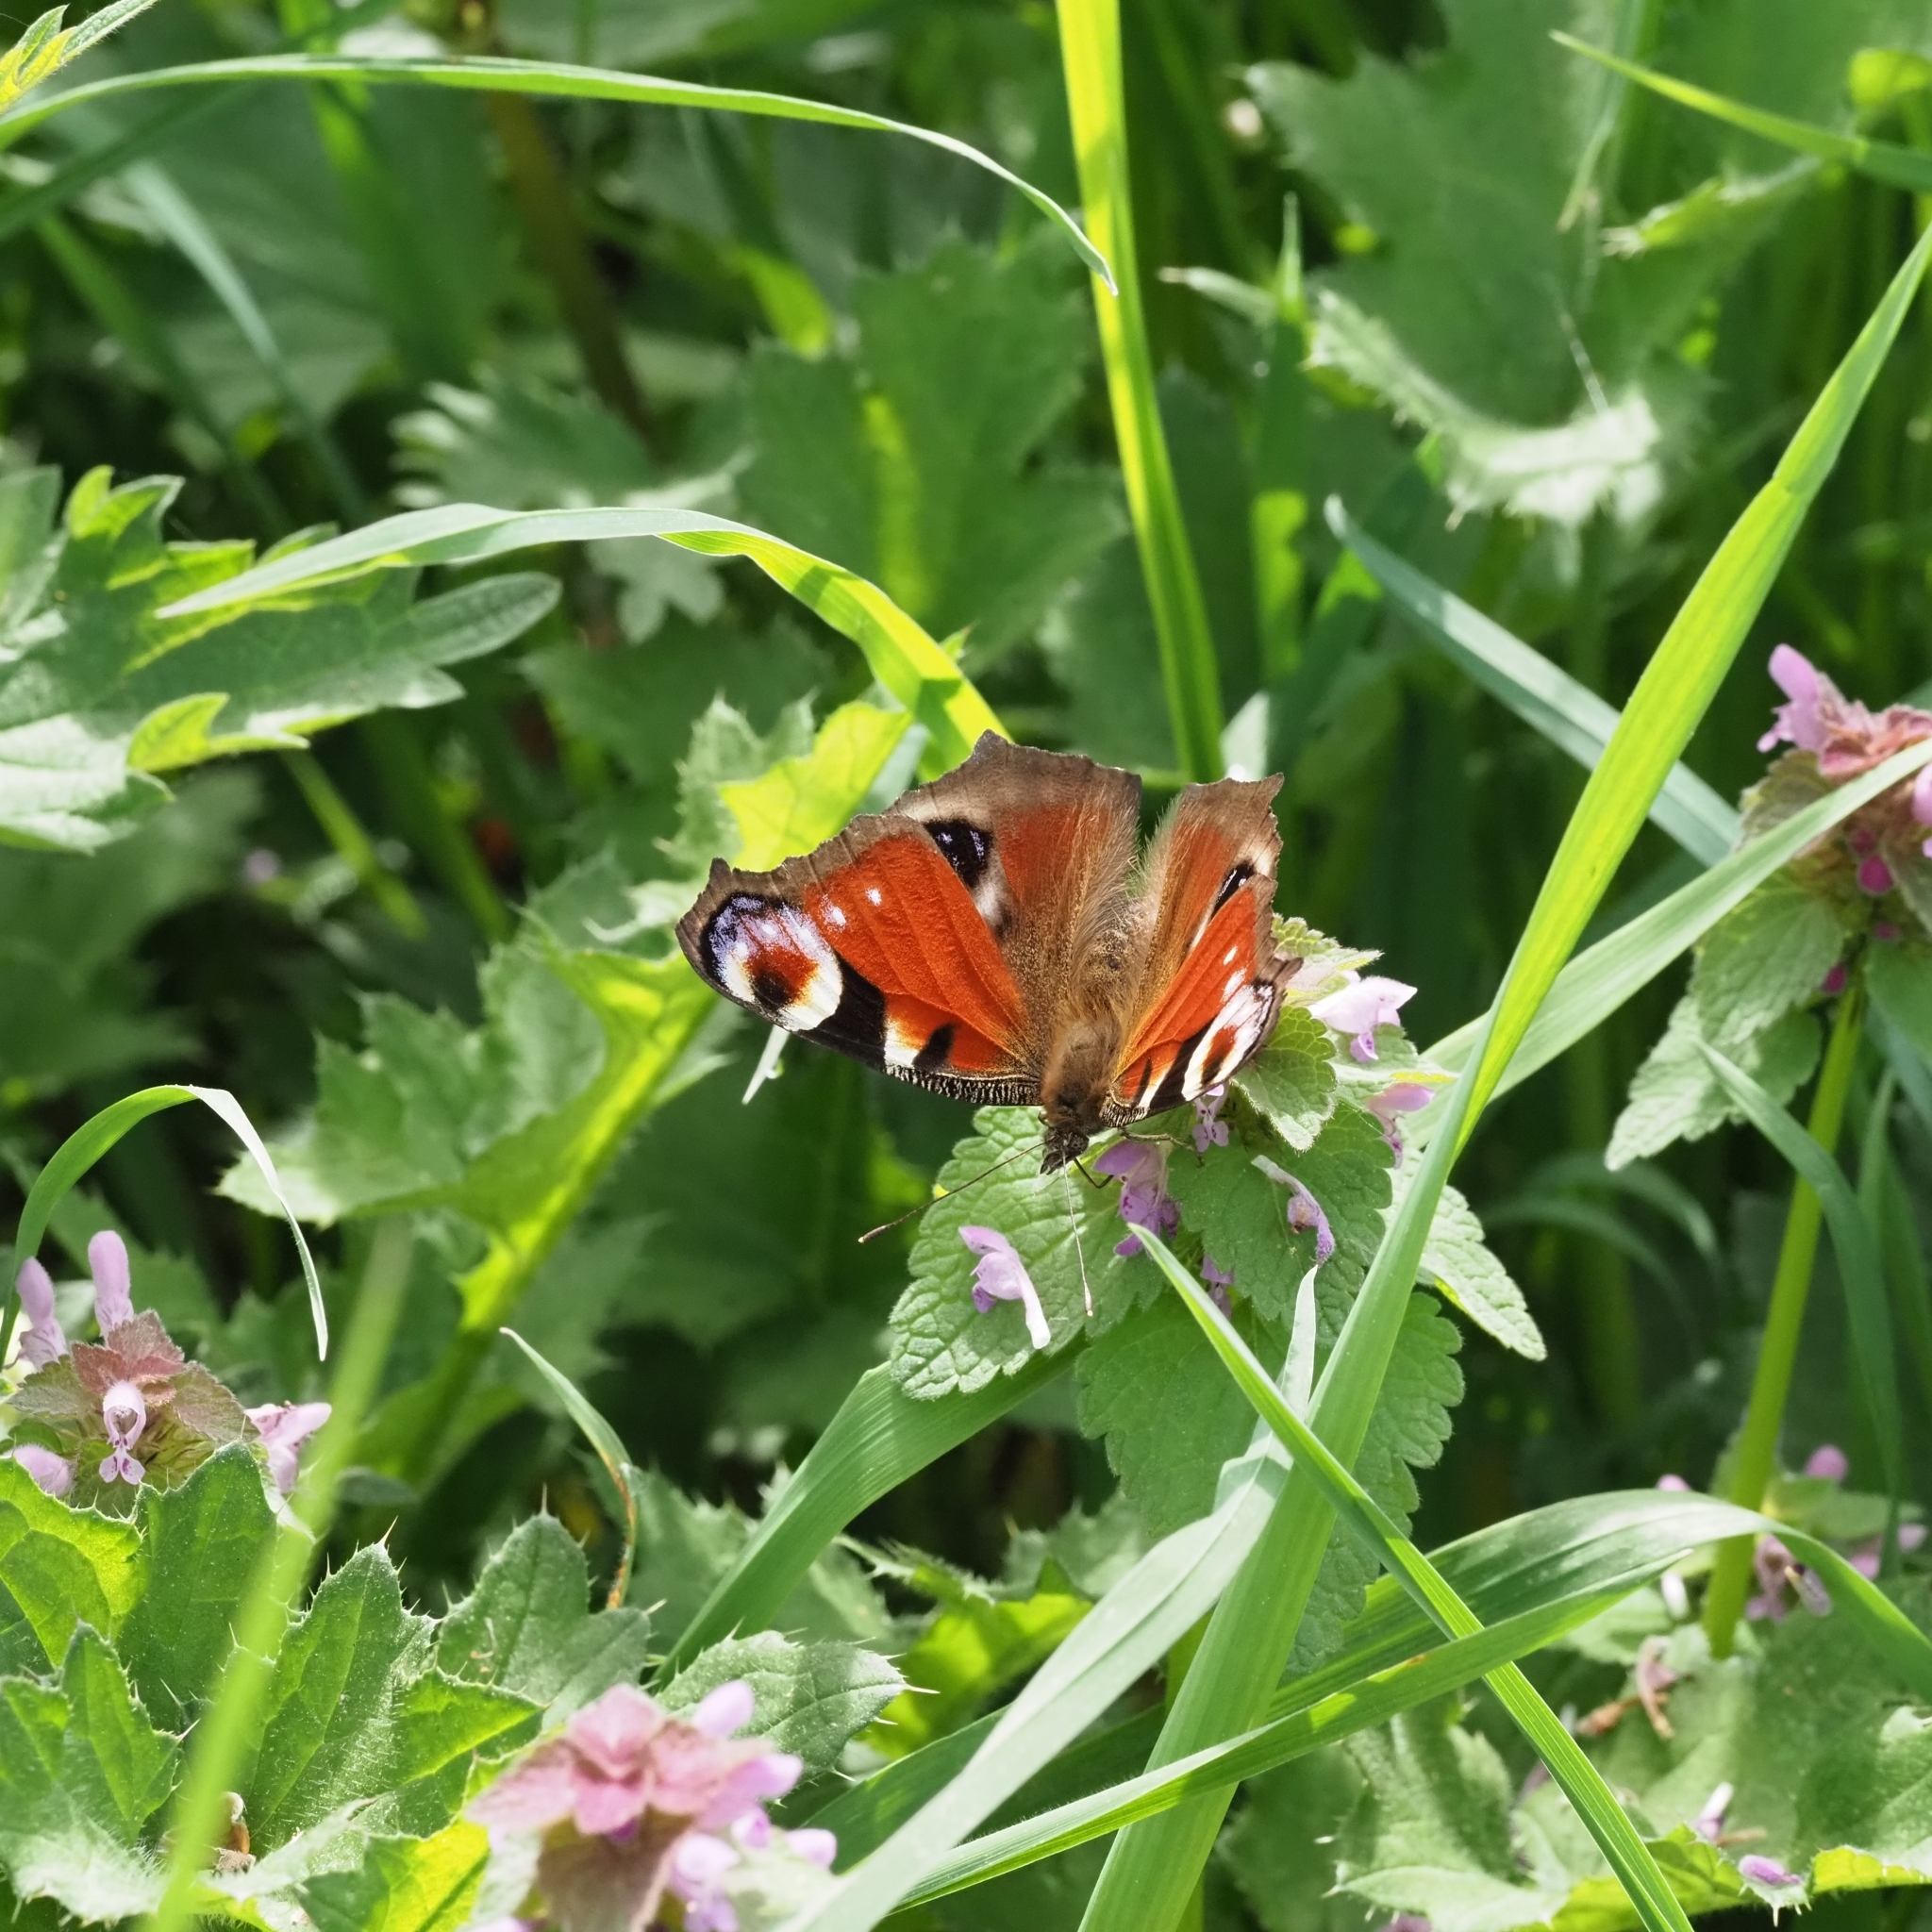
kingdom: Animalia
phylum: Arthropoda
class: Insecta
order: Lepidoptera
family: Nymphalidae
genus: Aglais
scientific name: Aglais io
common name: Peacock
